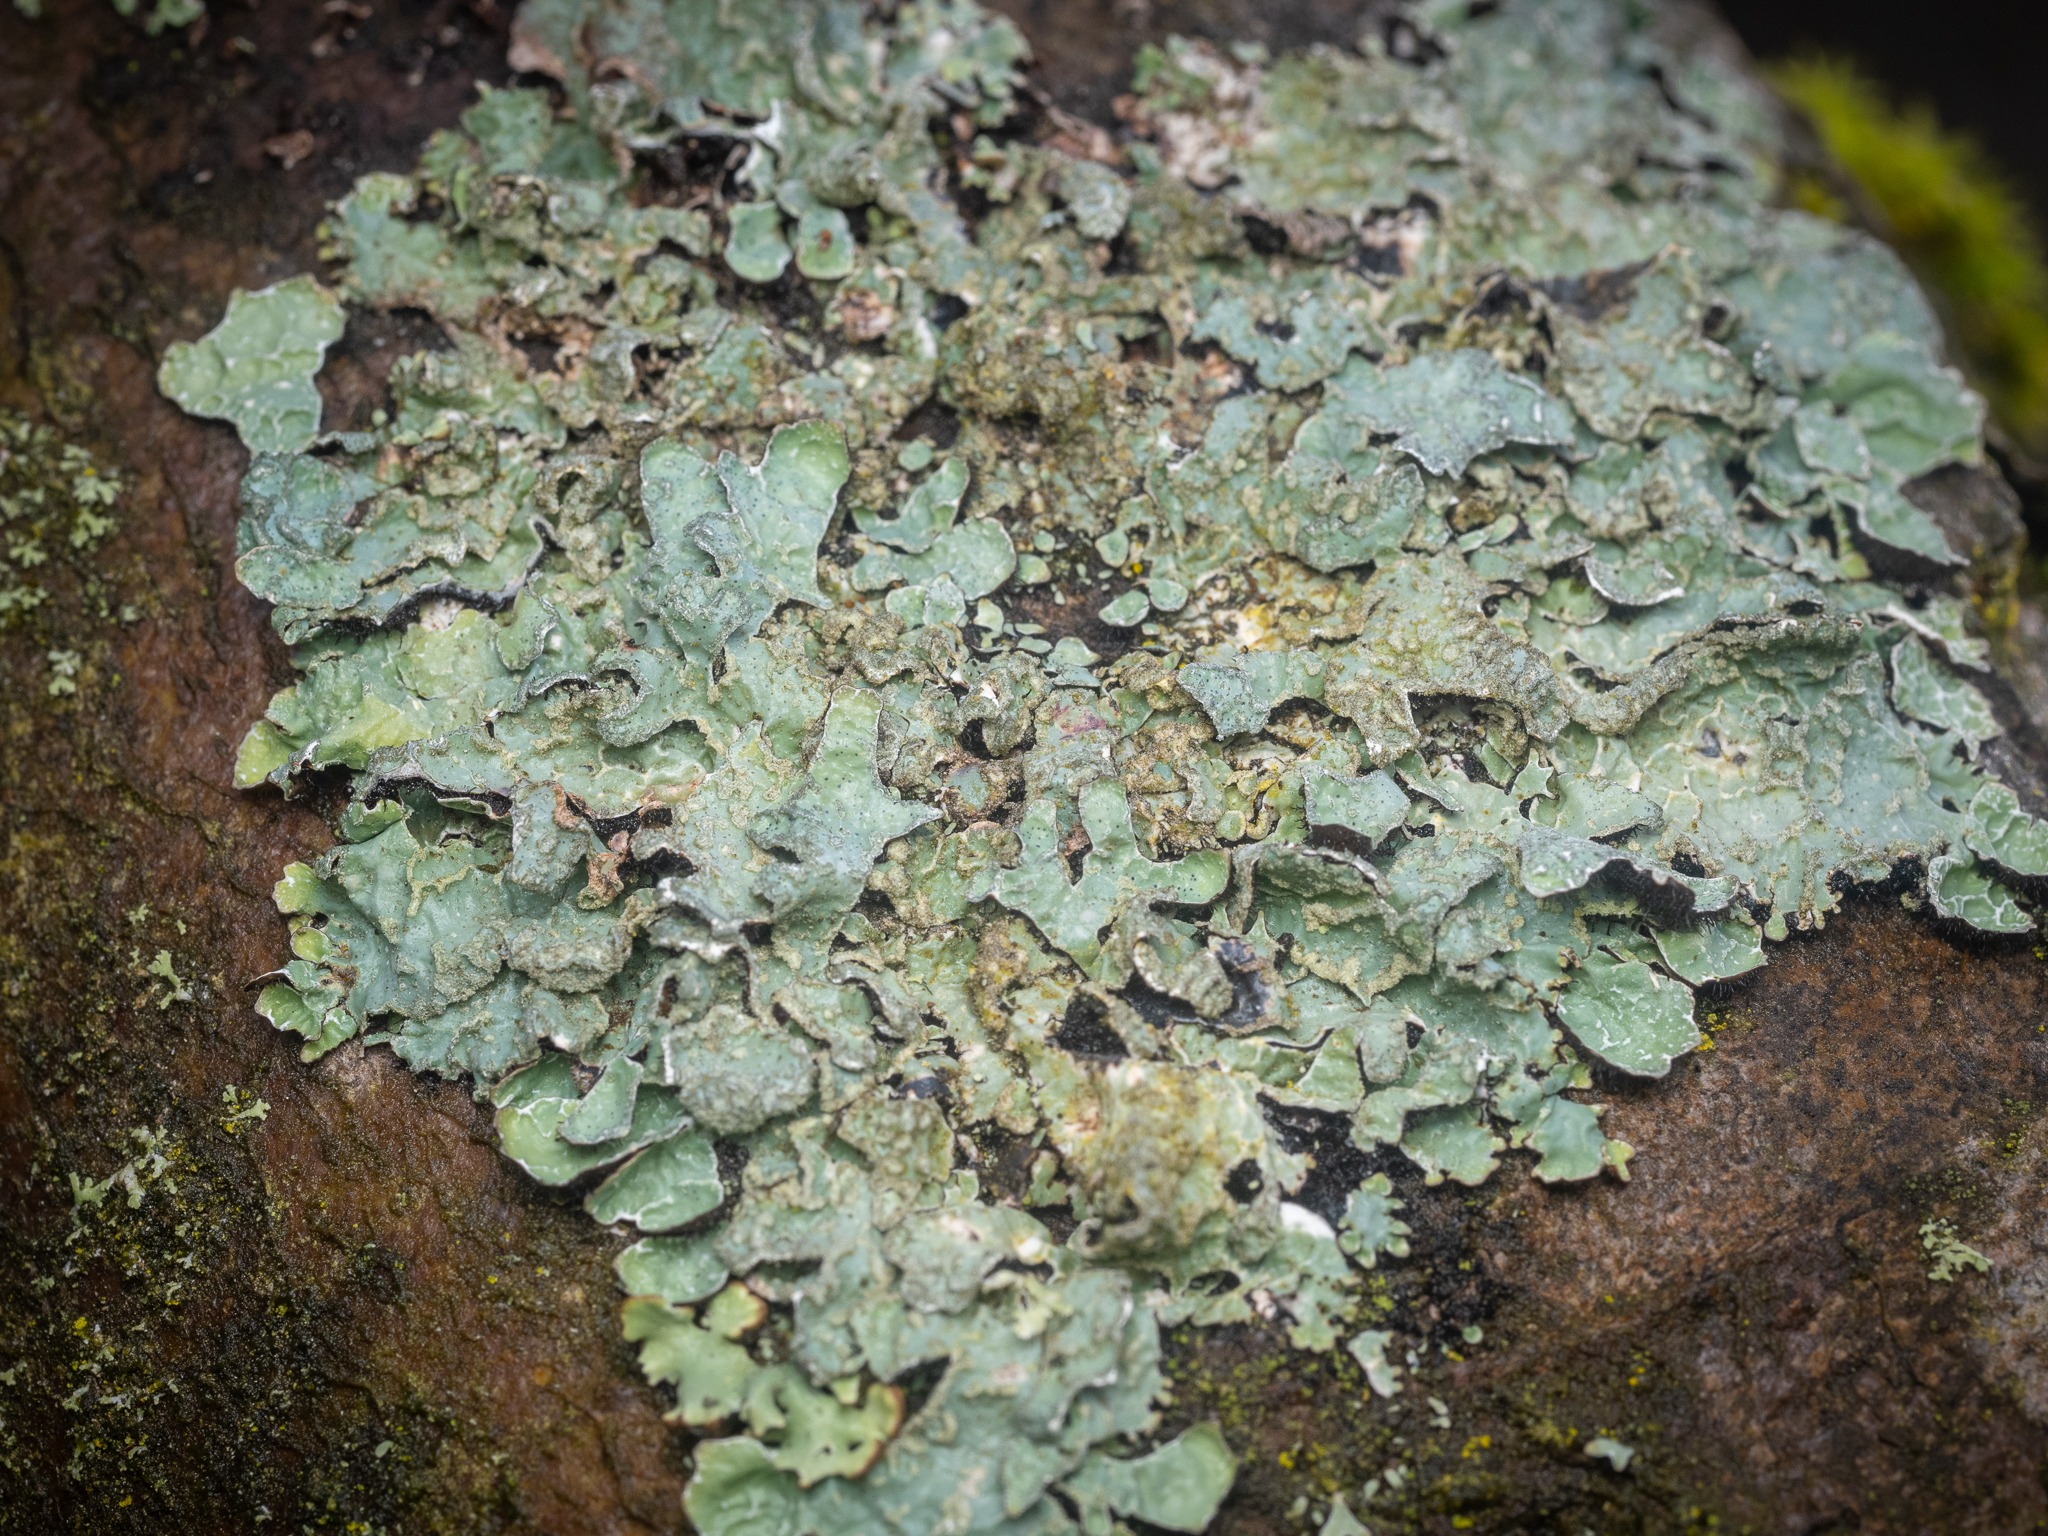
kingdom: Fungi
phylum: Ascomycota
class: Lecanoromycetes
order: Lecanorales
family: Parmeliaceae
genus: Parmelia
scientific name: Parmelia sulcata
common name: Netted shield lichen
